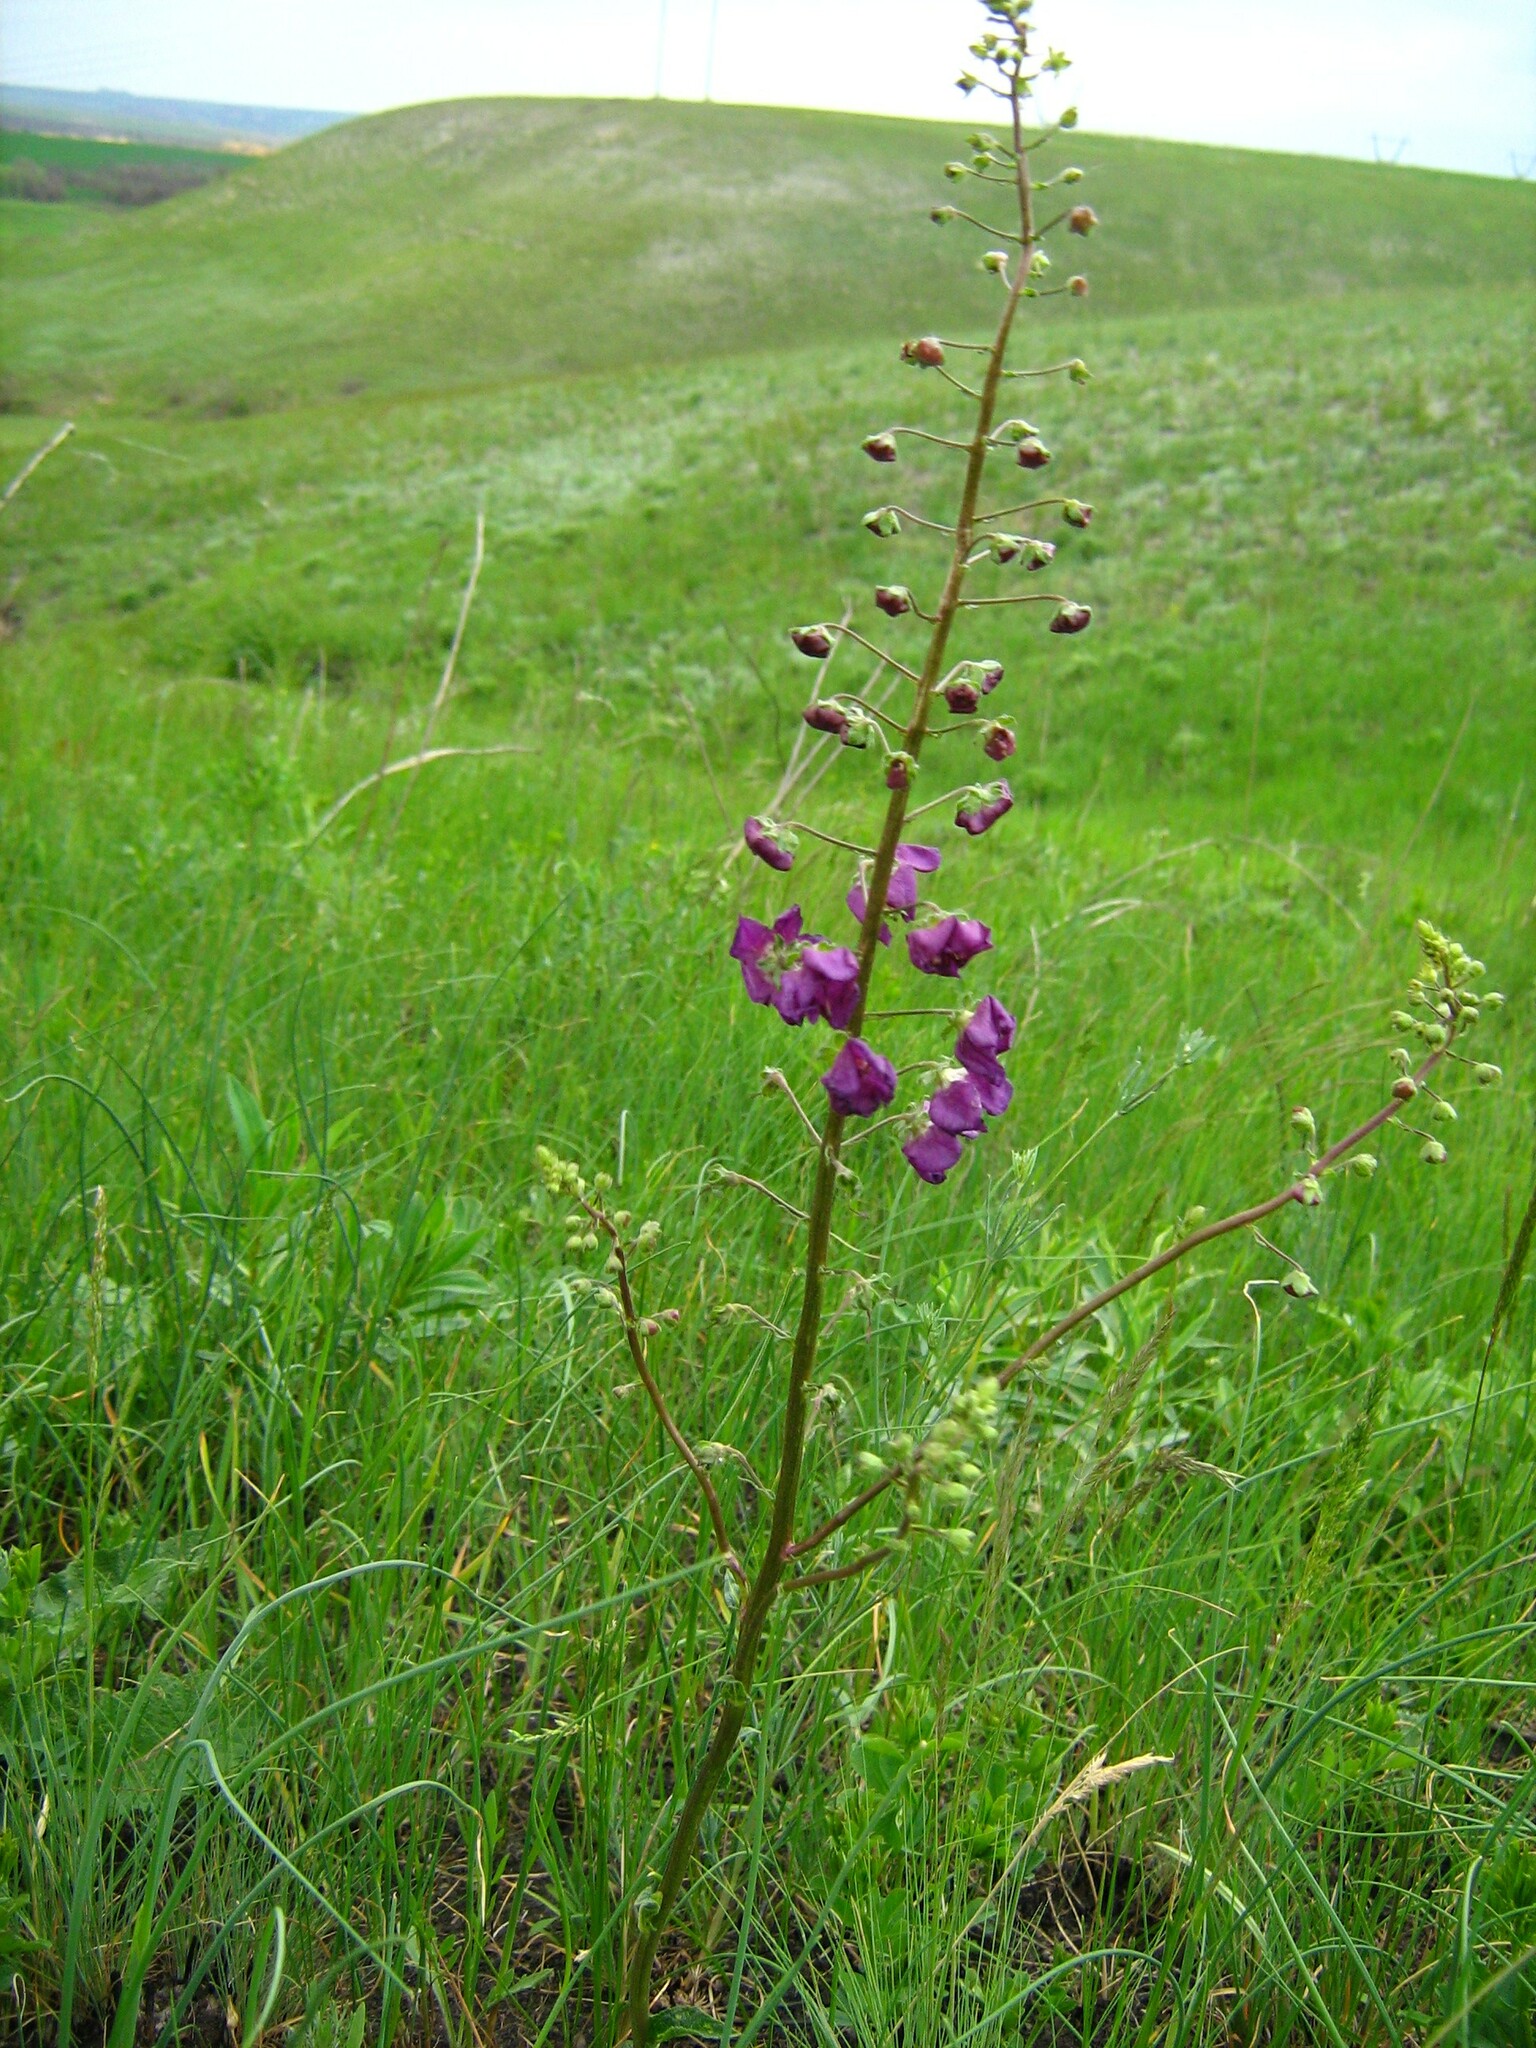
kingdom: Plantae
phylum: Tracheophyta
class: Magnoliopsida
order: Lamiales
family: Scrophulariaceae
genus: Verbascum
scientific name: Verbascum phoeniceum
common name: Purple mullein
